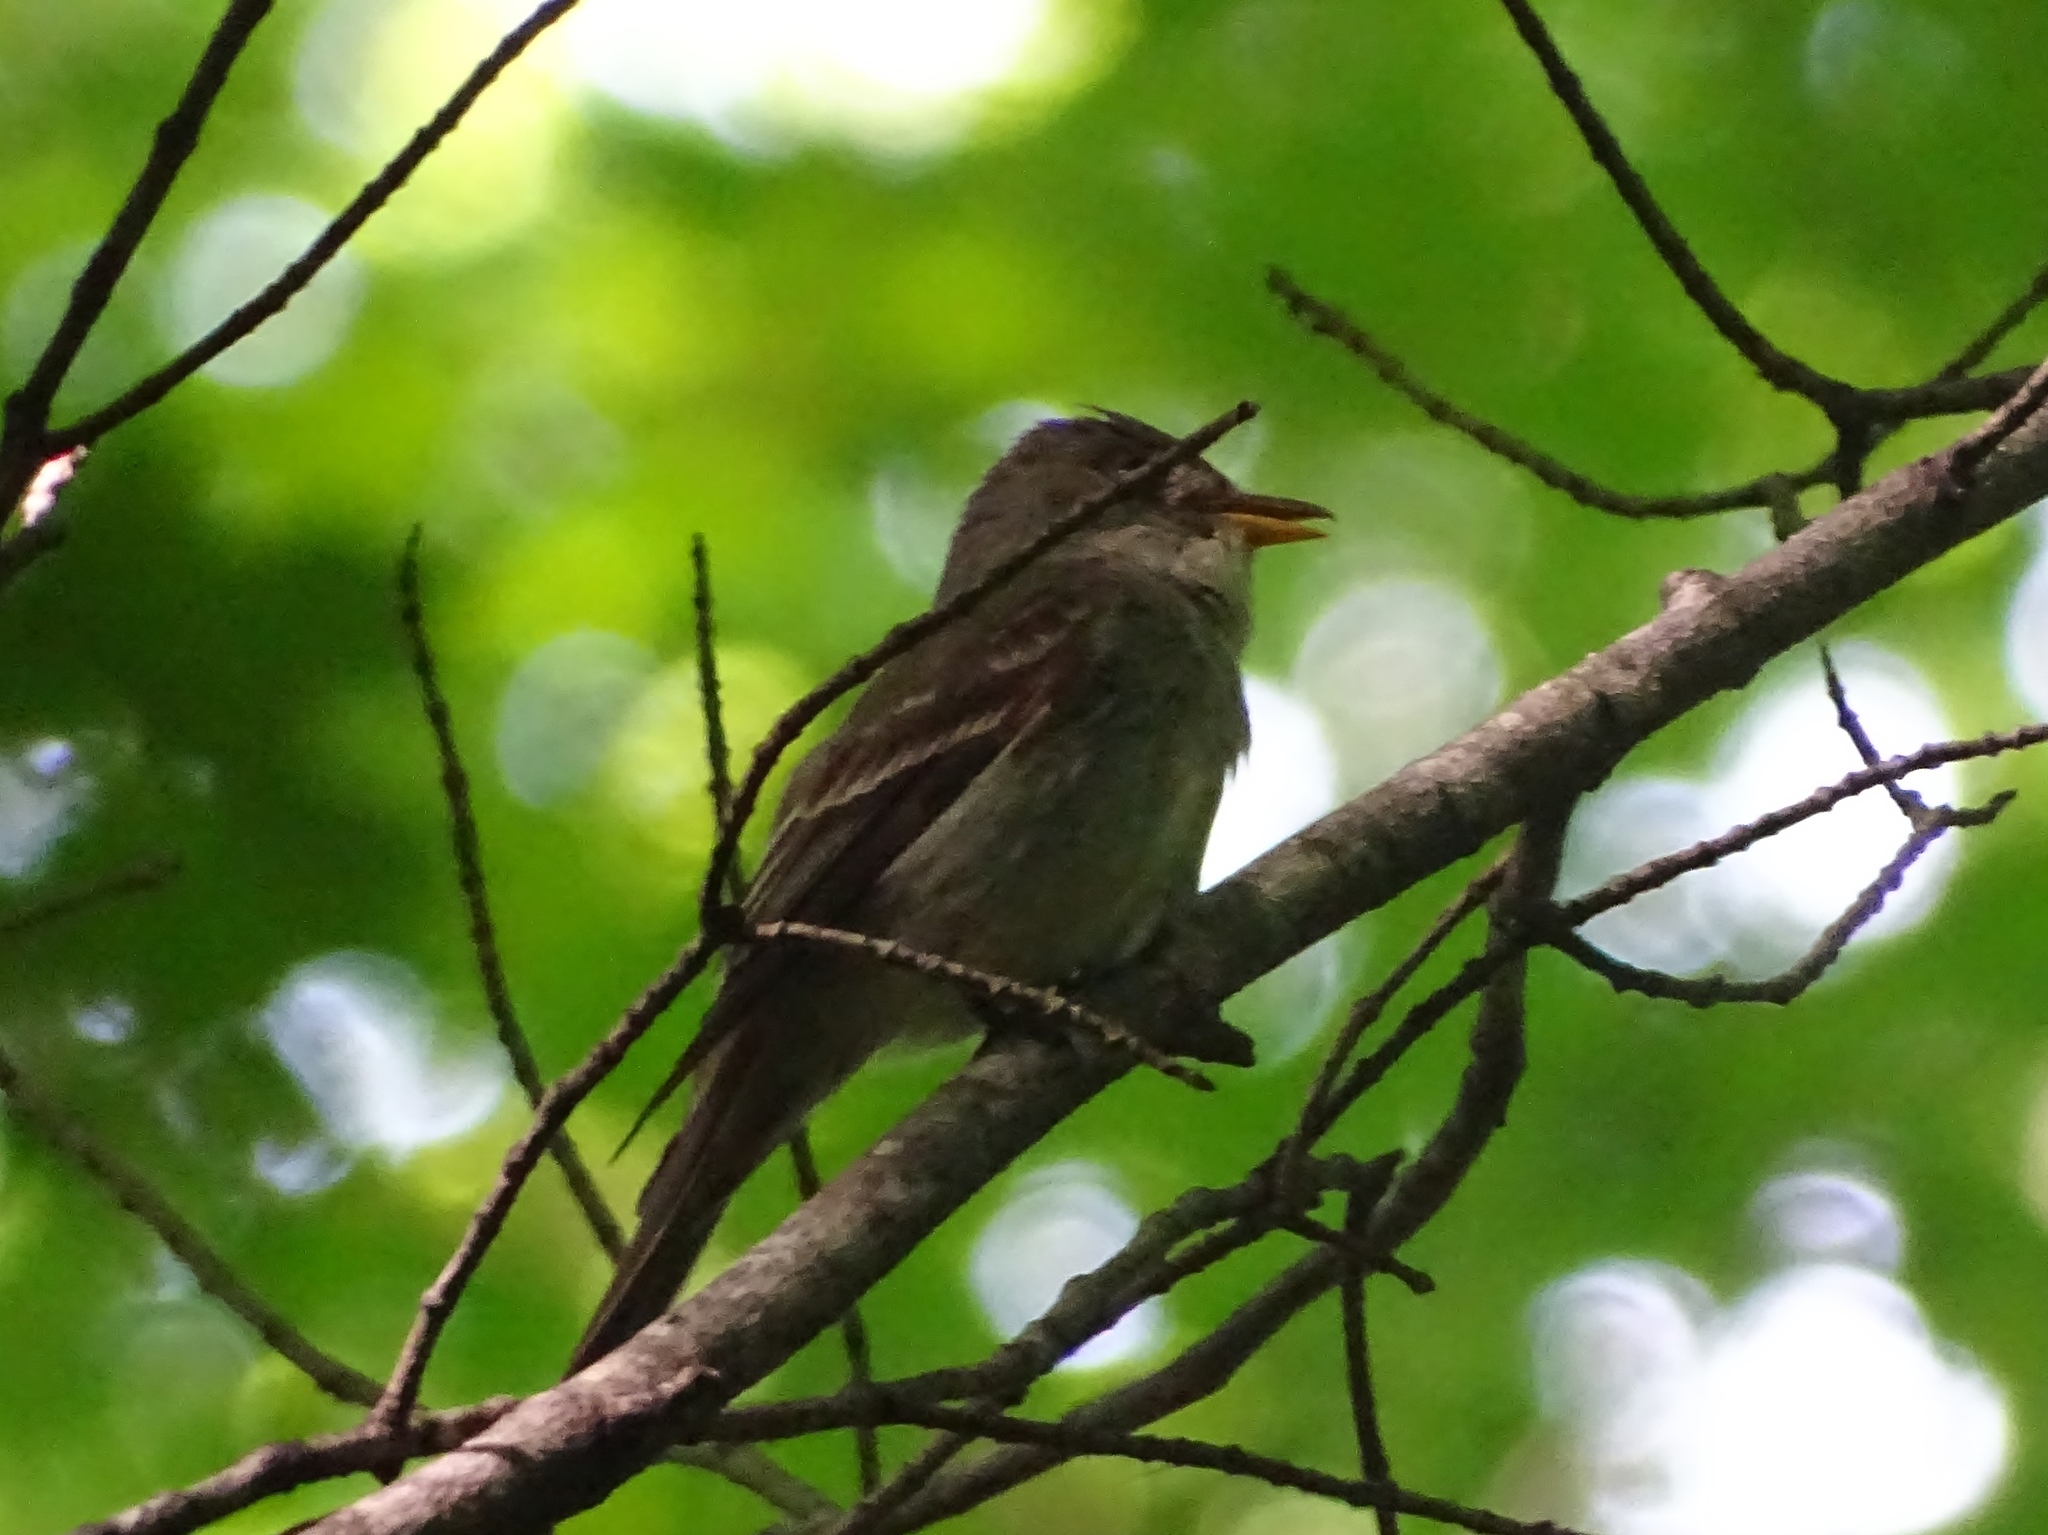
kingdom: Animalia
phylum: Chordata
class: Aves
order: Passeriformes
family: Tyrannidae
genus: Contopus
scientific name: Contopus virens
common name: Eastern wood-pewee
